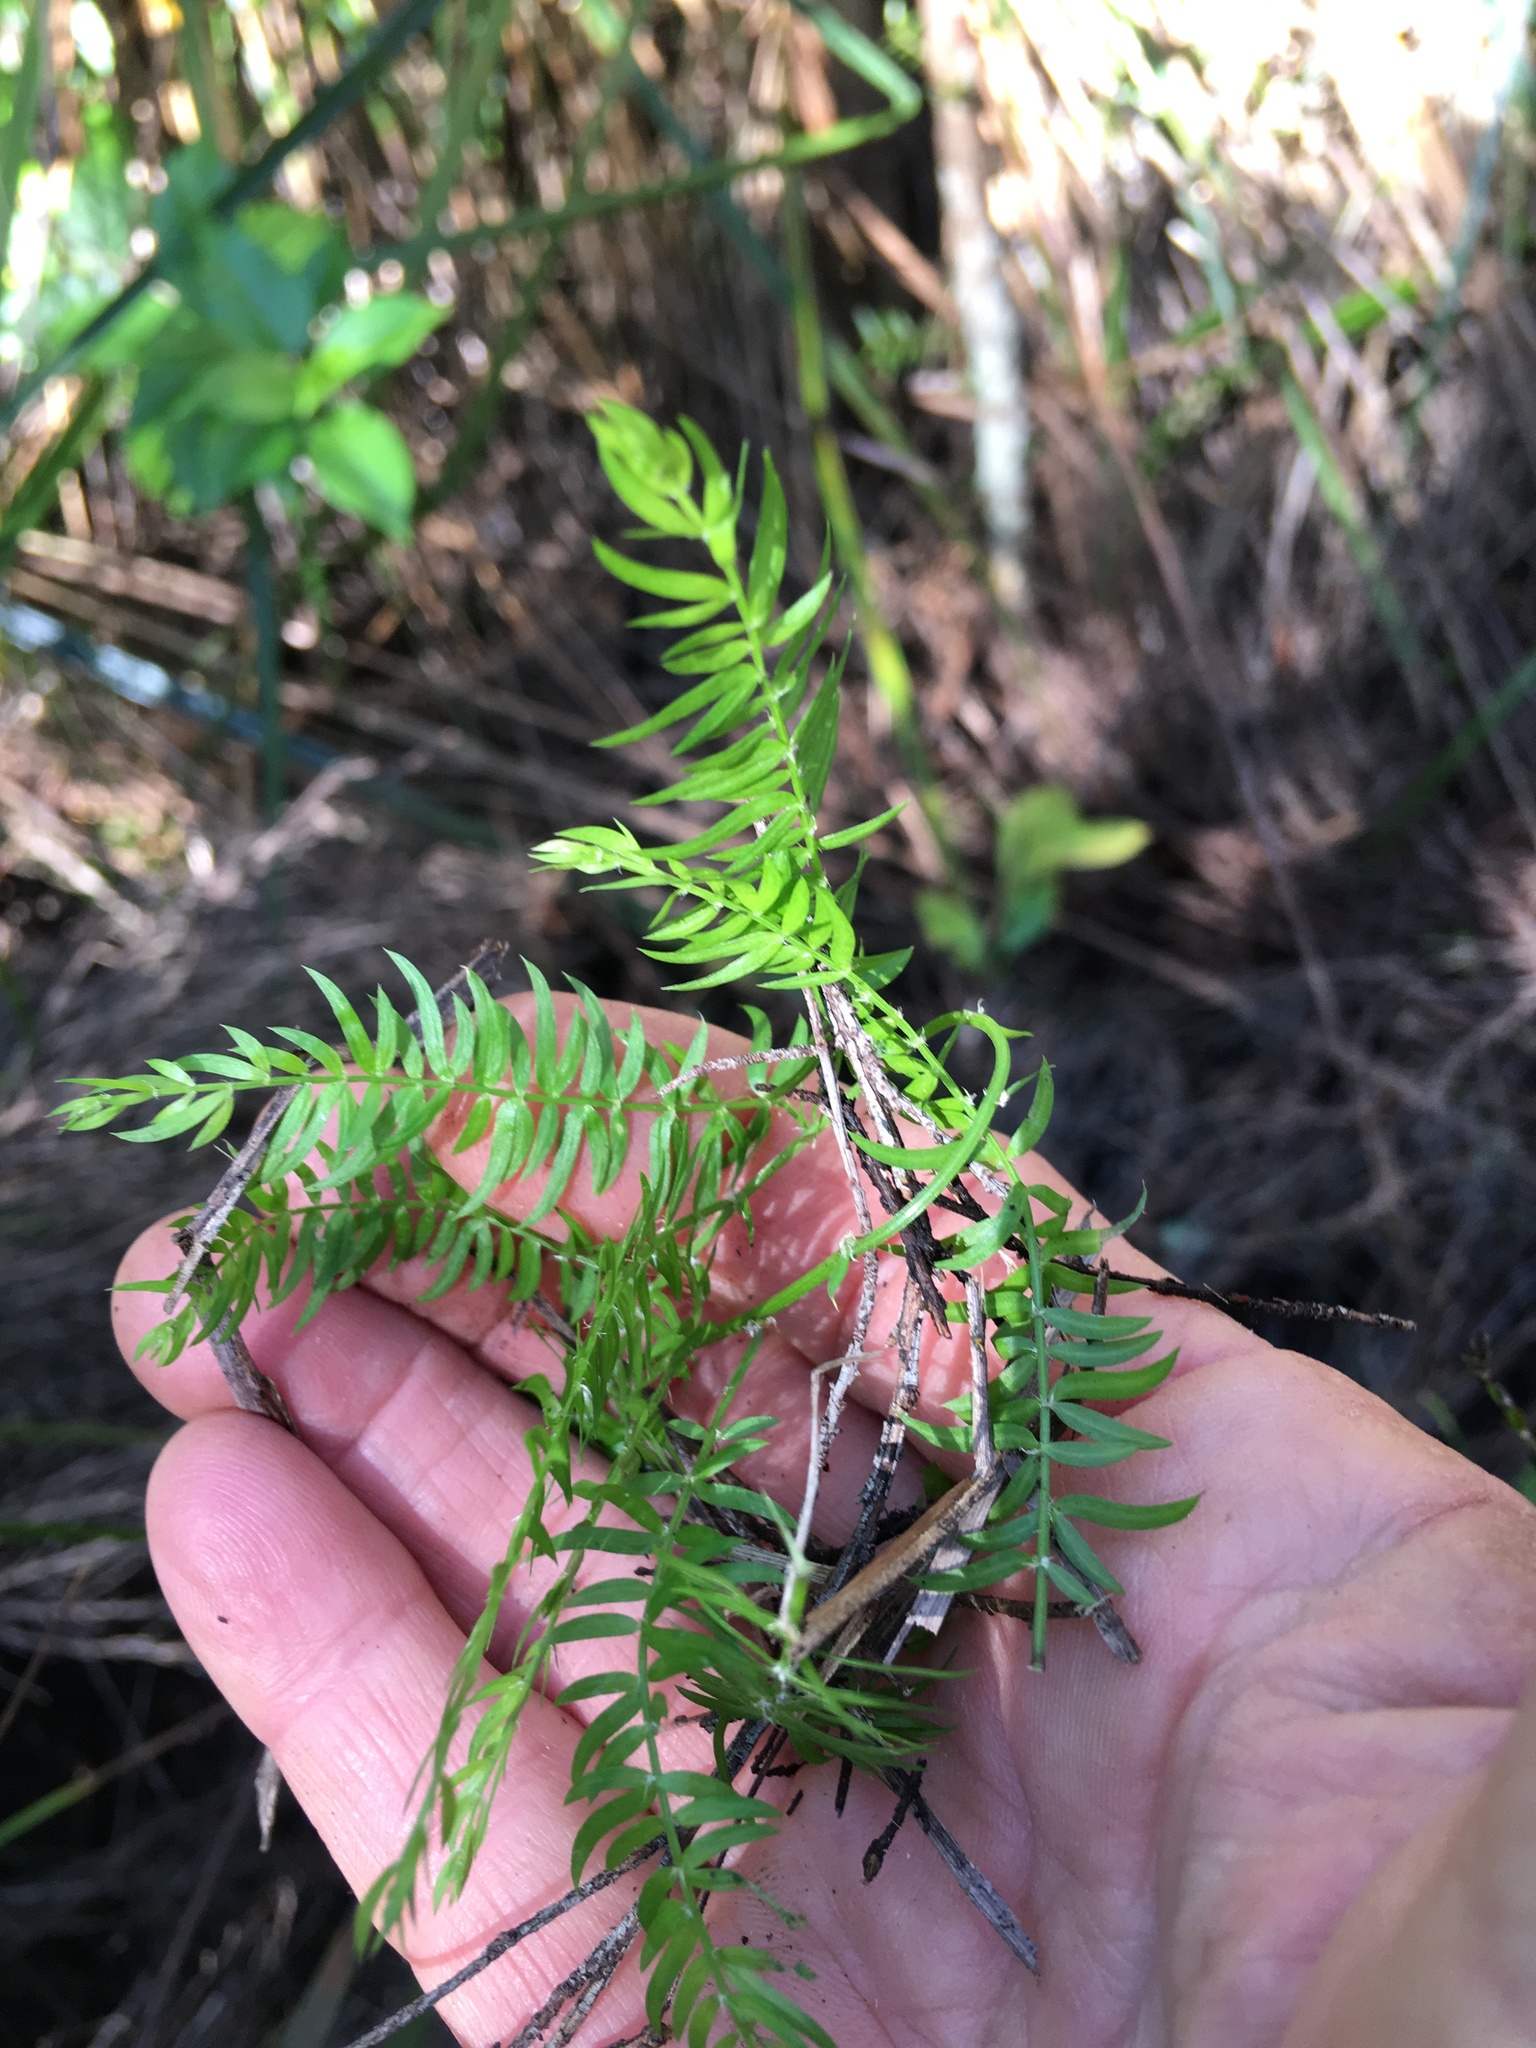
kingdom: Plantae
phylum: Tracheophyta
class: Liliopsida
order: Asparagales
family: Asparagaceae
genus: Asparagus
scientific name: Asparagus scandens
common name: Asparagus-fern
